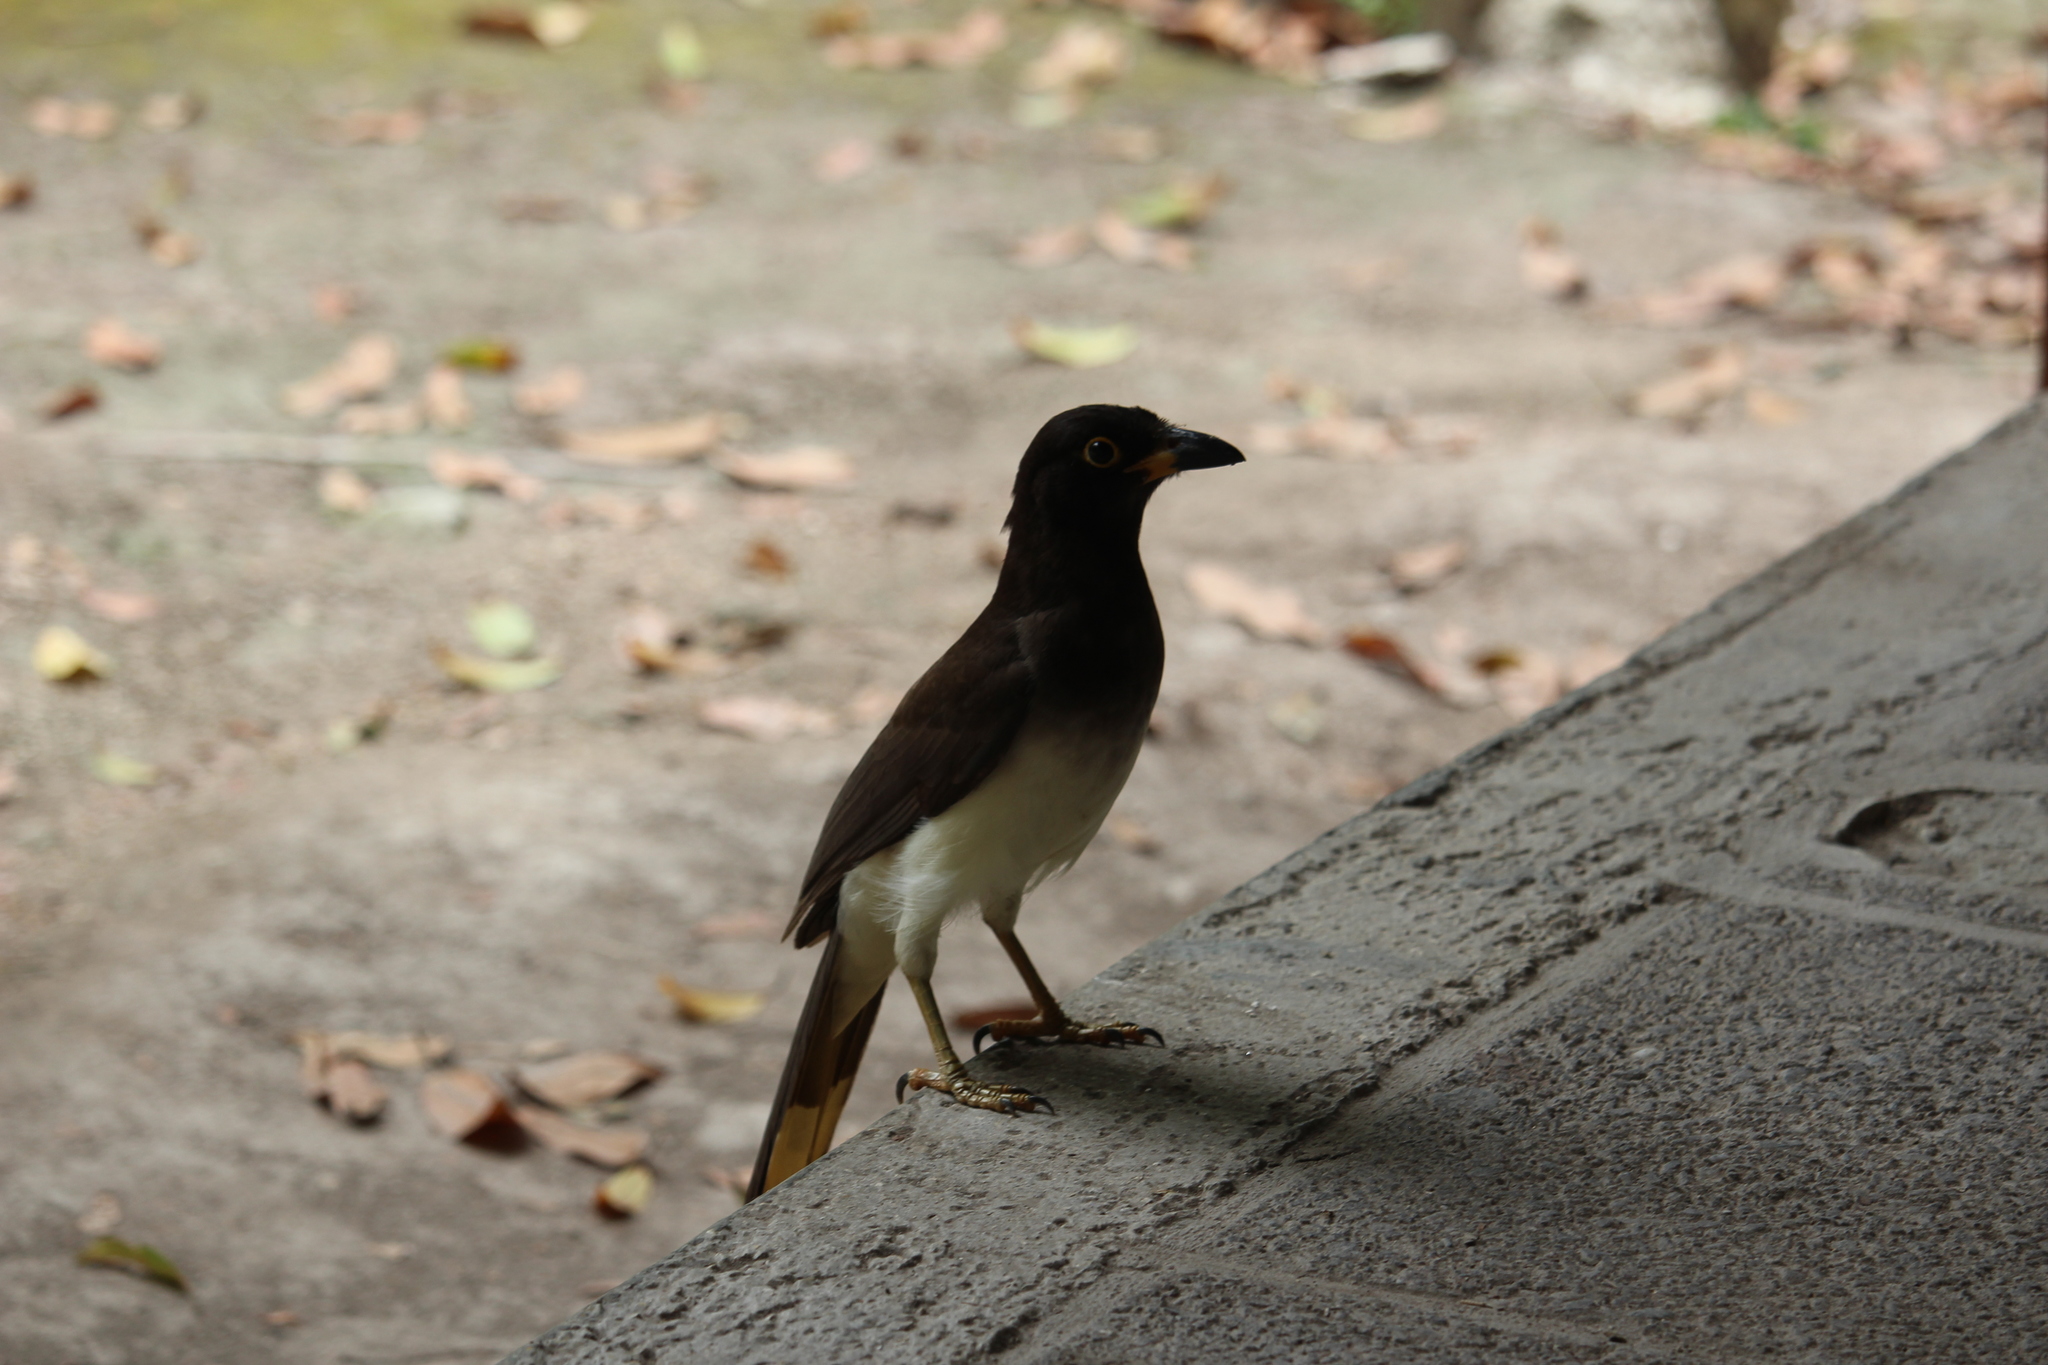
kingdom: Animalia
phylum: Chordata
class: Aves
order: Passeriformes
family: Corvidae
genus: Psilorhinus
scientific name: Psilorhinus morio
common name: Brown jay
